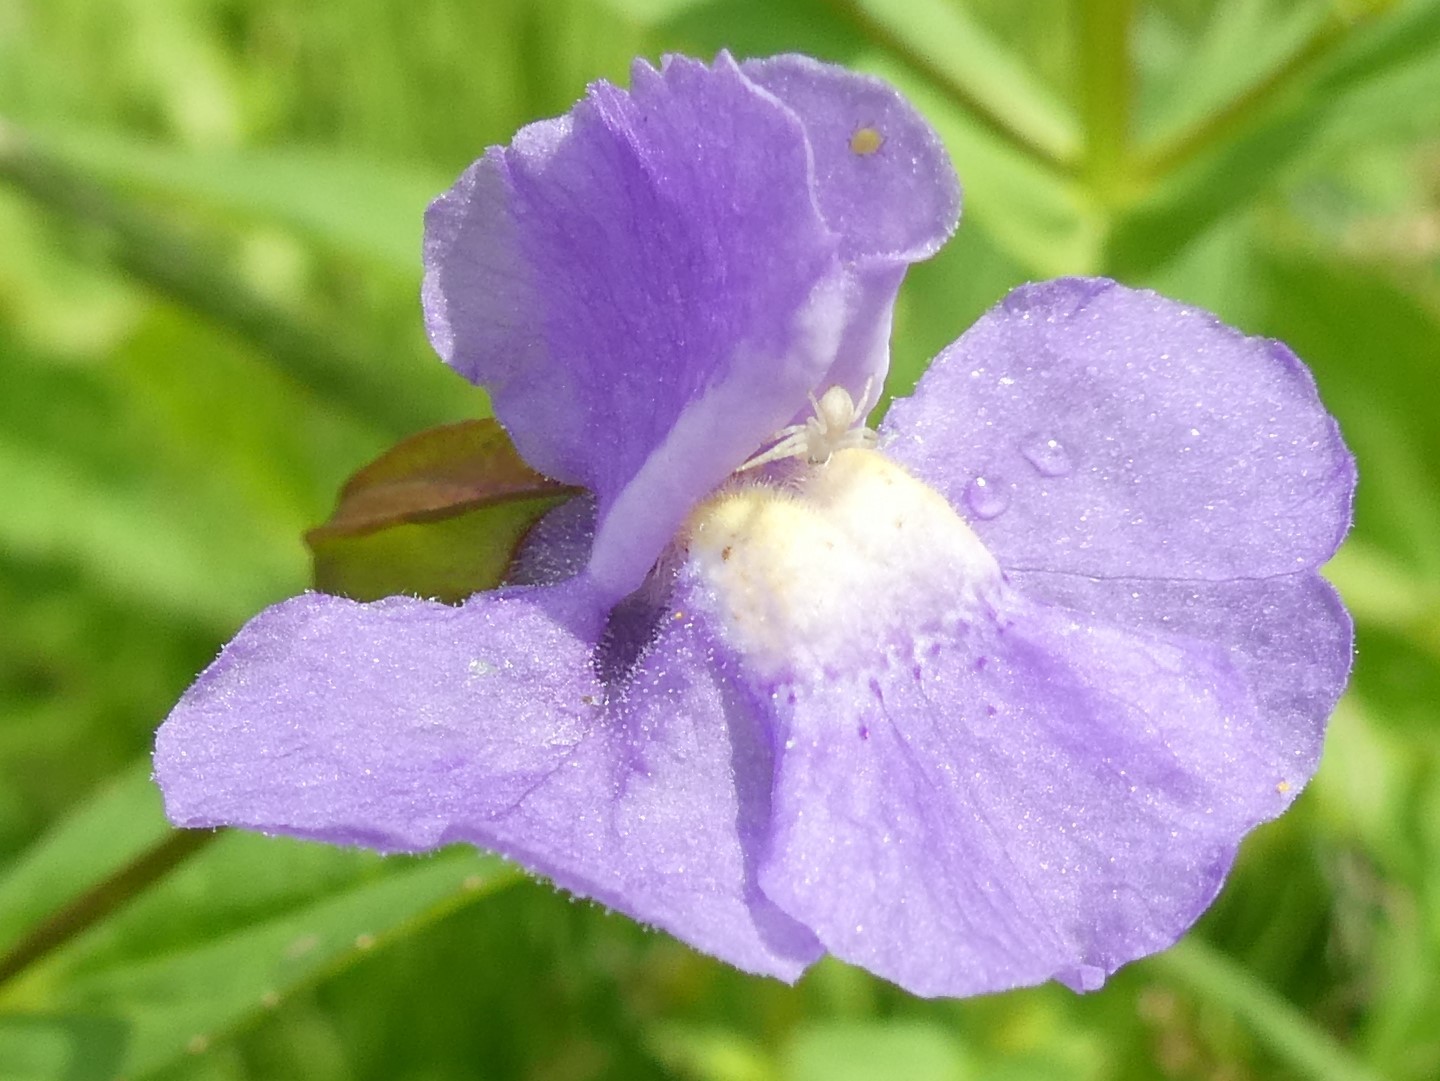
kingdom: Plantae
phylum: Tracheophyta
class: Magnoliopsida
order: Lamiales
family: Phrymaceae
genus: Mimulus
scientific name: Mimulus ringens
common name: Allegheny monkeyflower
